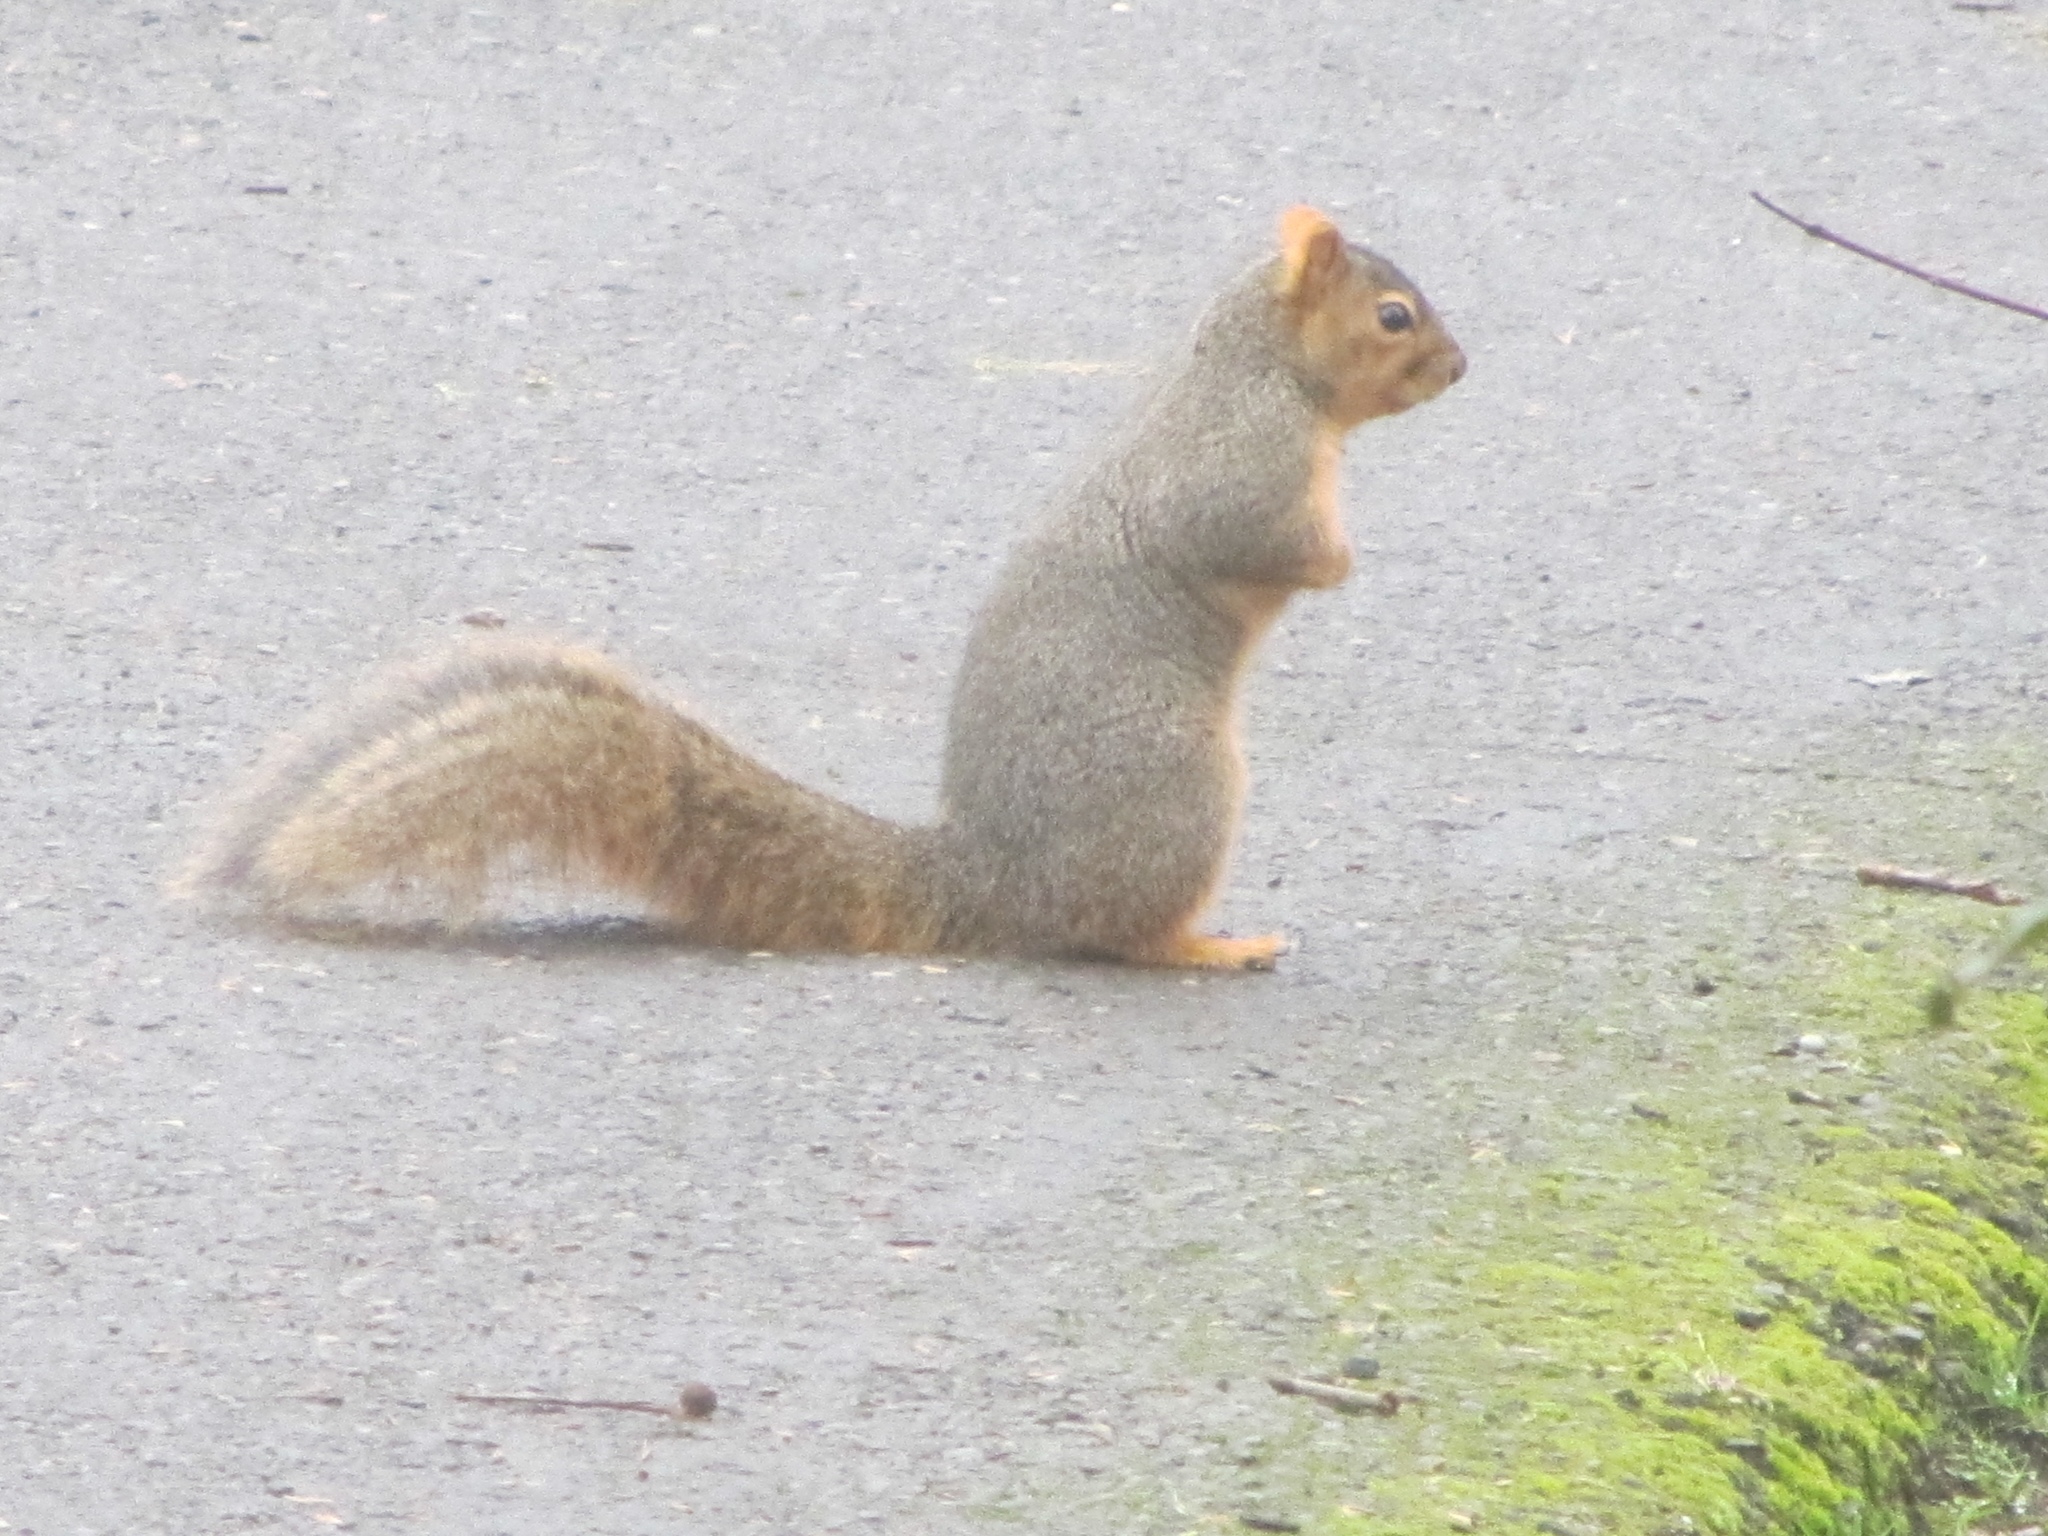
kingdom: Animalia
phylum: Chordata
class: Mammalia
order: Rodentia
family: Sciuridae
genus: Sciurus
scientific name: Sciurus niger
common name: Fox squirrel
